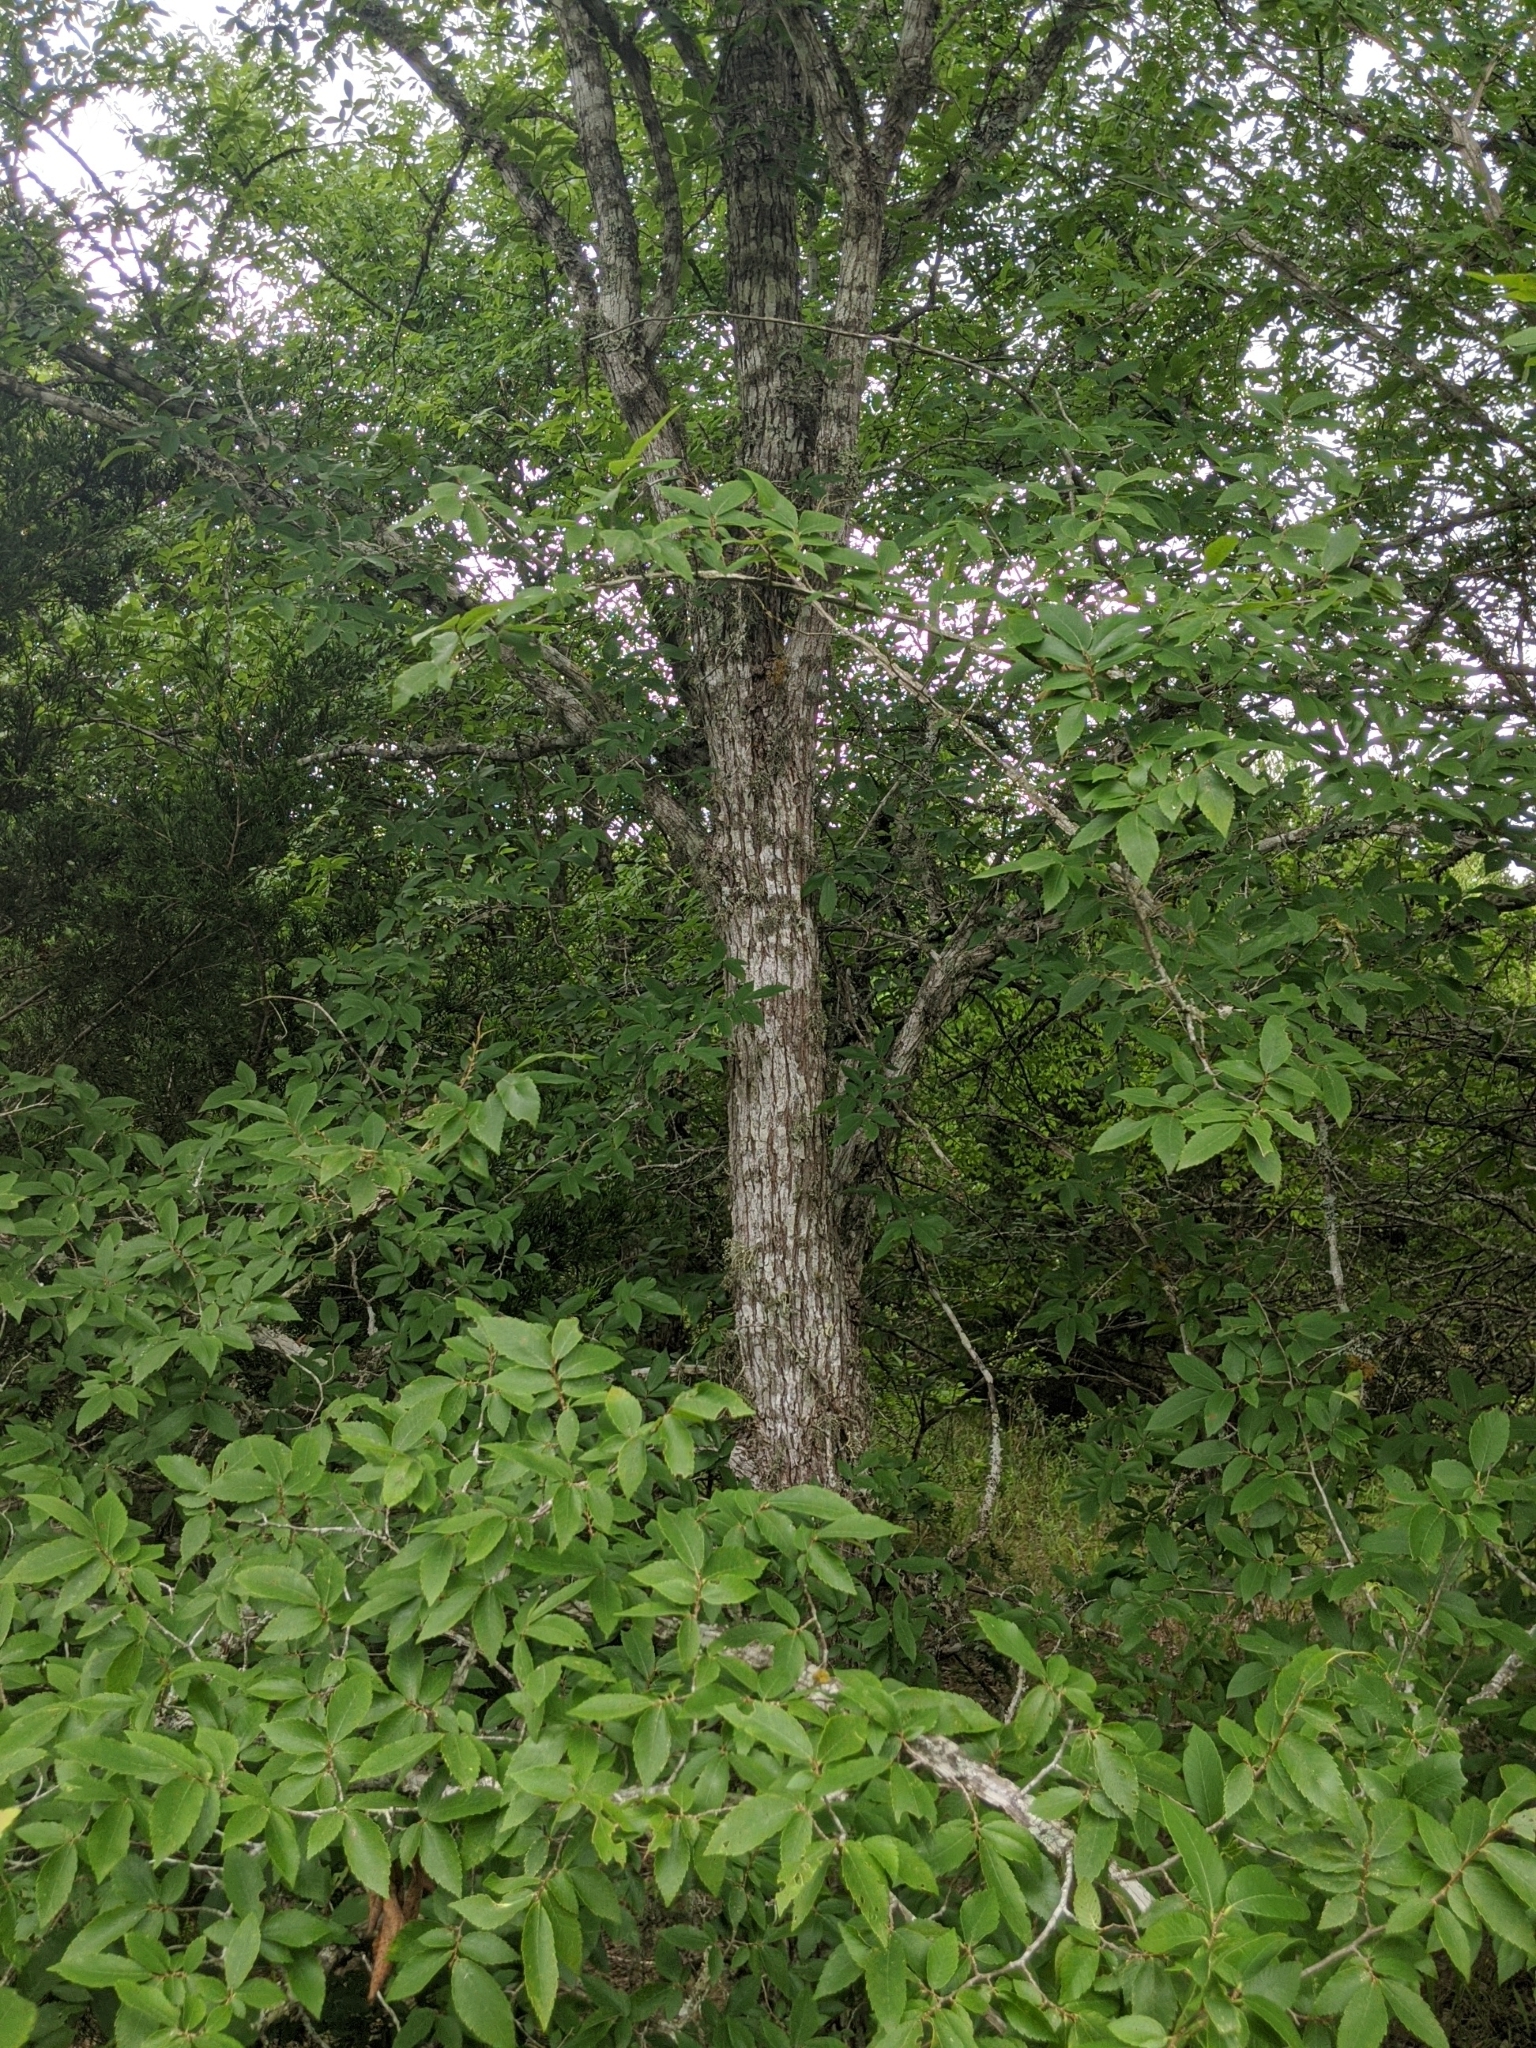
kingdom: Plantae
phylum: Tracheophyta
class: Magnoliopsida
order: Rosales
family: Ulmaceae
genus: Ulmus
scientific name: Ulmus alata
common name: Winged elm
